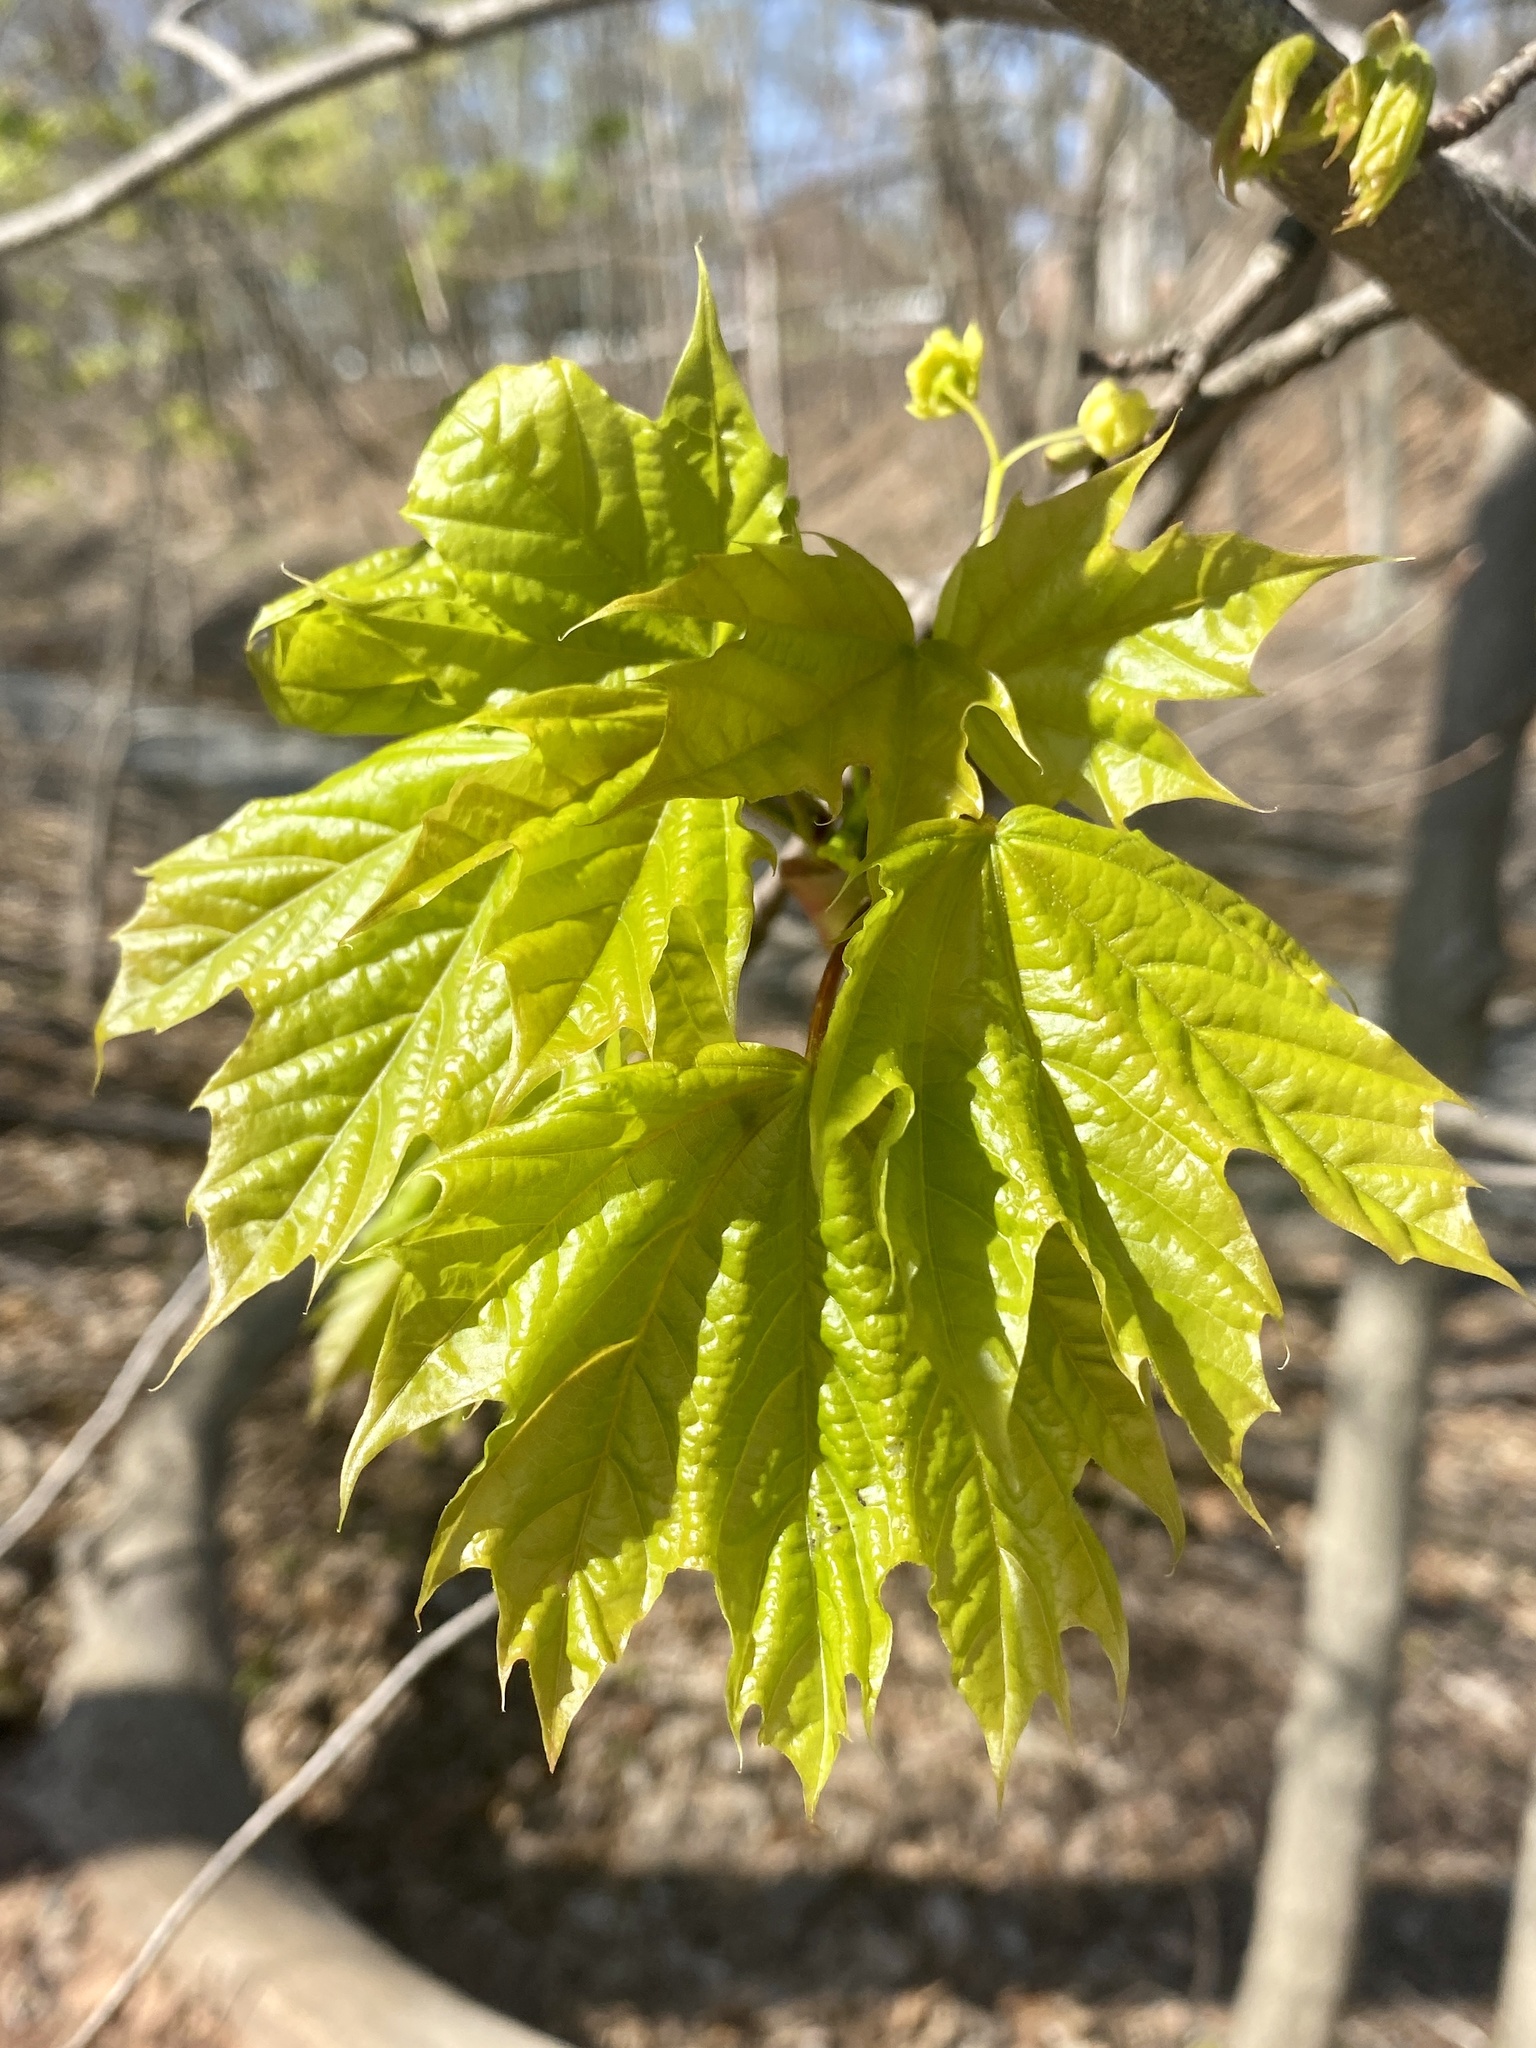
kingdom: Plantae
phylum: Tracheophyta
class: Magnoliopsida
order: Sapindales
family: Sapindaceae
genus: Acer
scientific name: Acer platanoides
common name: Norway maple
